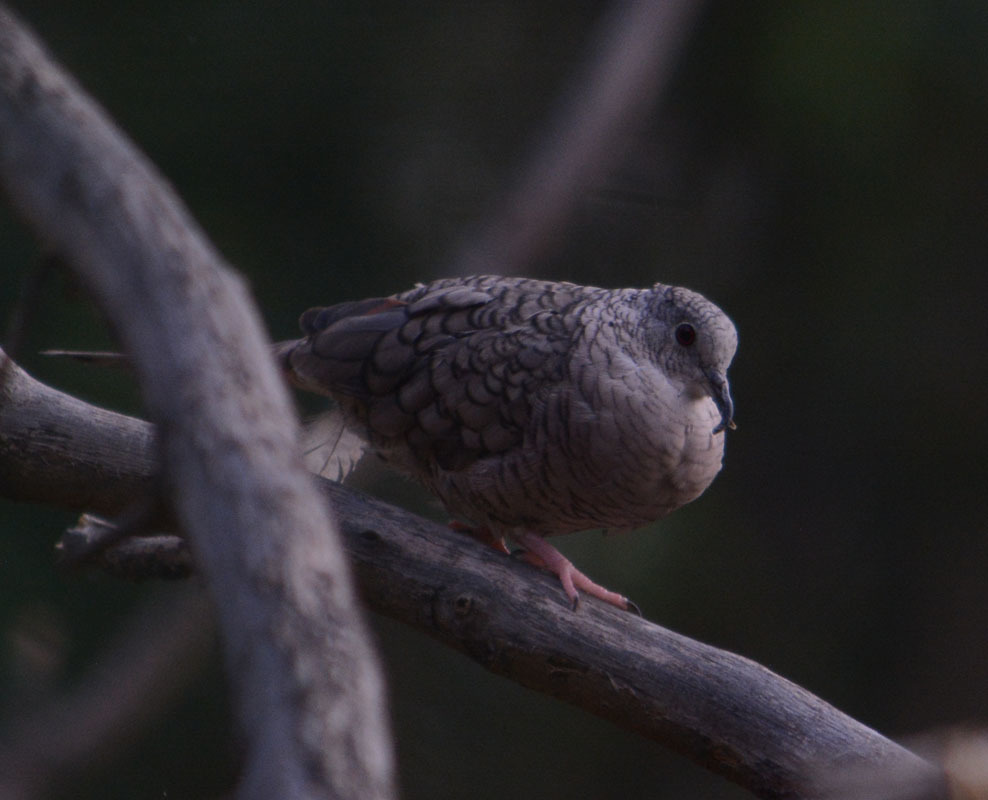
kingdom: Animalia
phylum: Chordata
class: Aves
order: Columbiformes
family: Columbidae
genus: Columbina
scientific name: Columbina inca
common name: Inca dove
